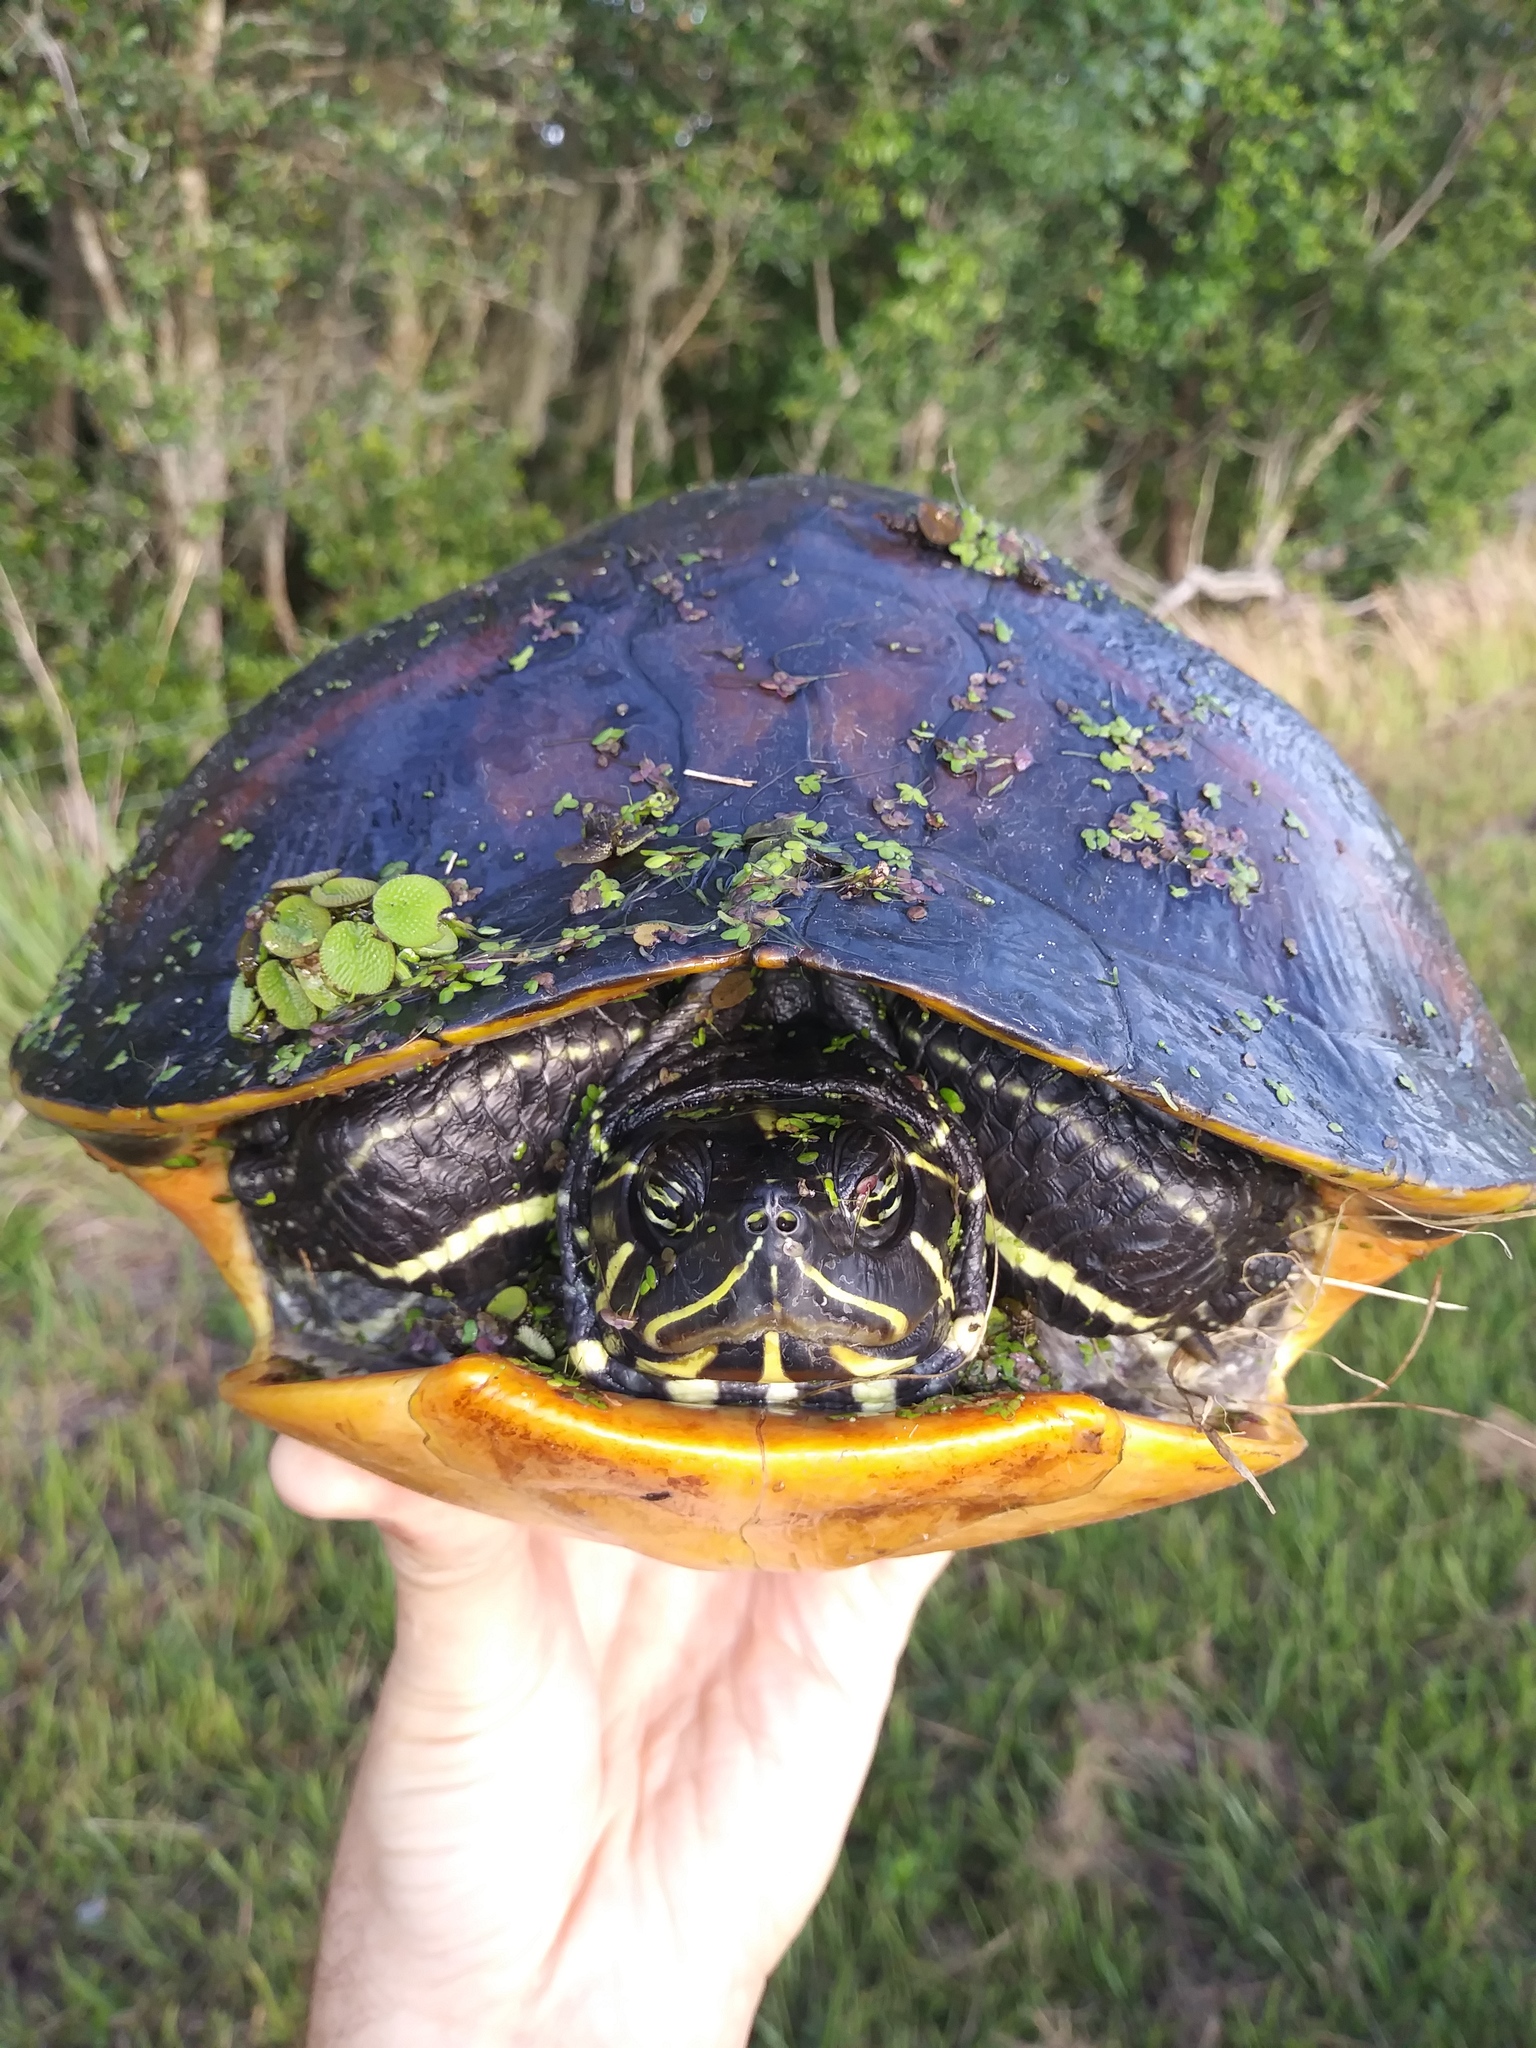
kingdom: Animalia
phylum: Chordata
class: Testudines
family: Emydidae
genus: Pseudemys
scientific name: Pseudemys nelsoni
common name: Florida red-bellied turtle
